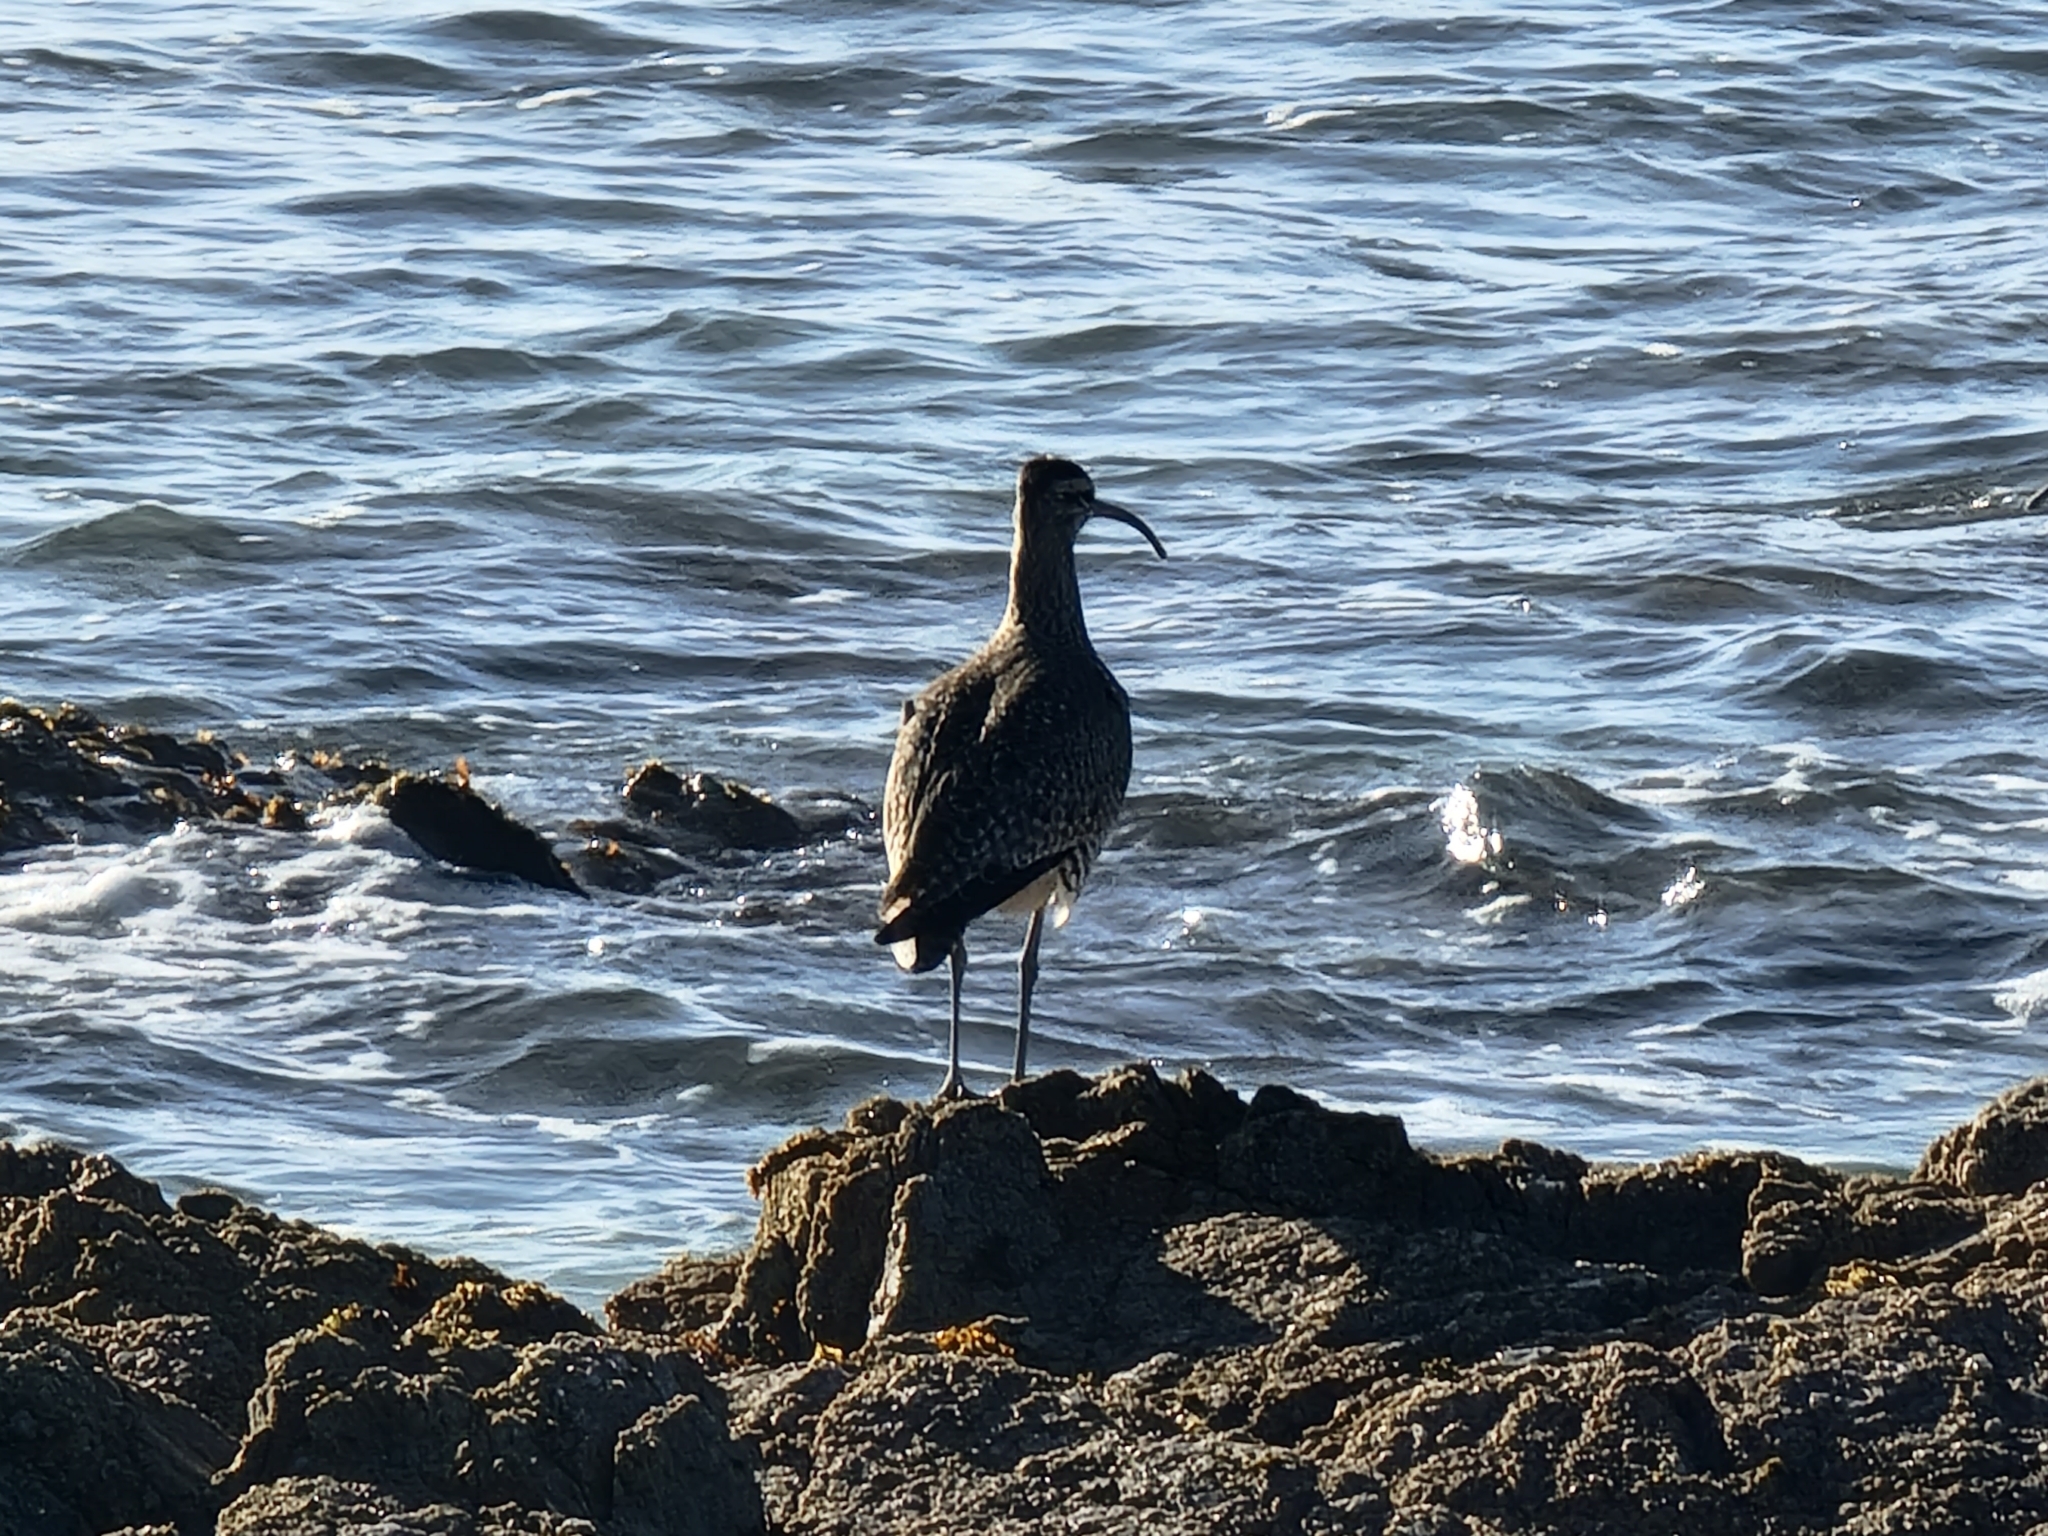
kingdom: Animalia
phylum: Chordata
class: Aves
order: Charadriiformes
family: Scolopacidae
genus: Numenius
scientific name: Numenius phaeopus
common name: Whimbrel
